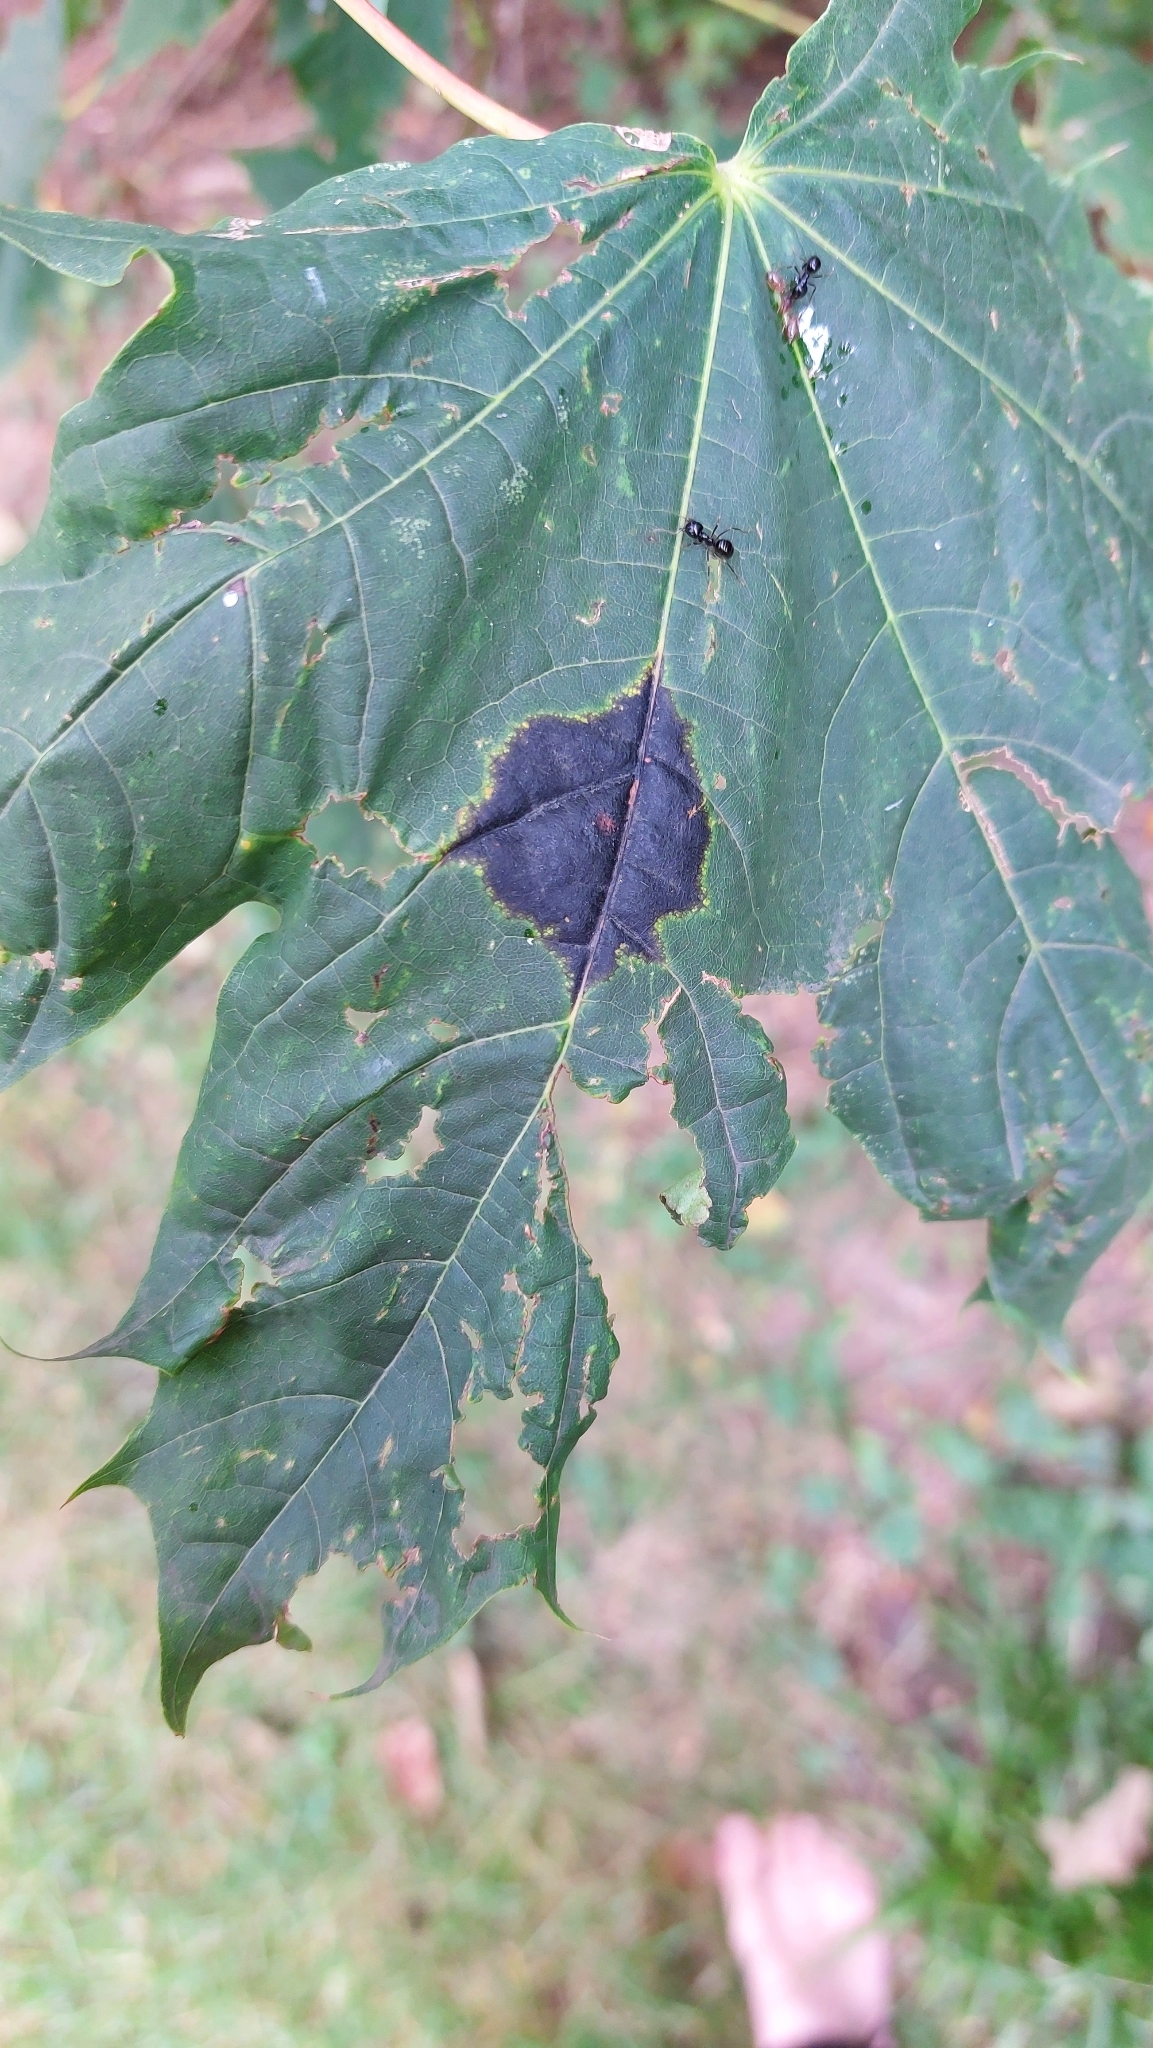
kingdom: Fungi
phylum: Ascomycota
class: Leotiomycetes
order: Rhytismatales
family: Rhytismataceae
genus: Rhytisma
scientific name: Rhytisma acerinum
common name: European tar spot
